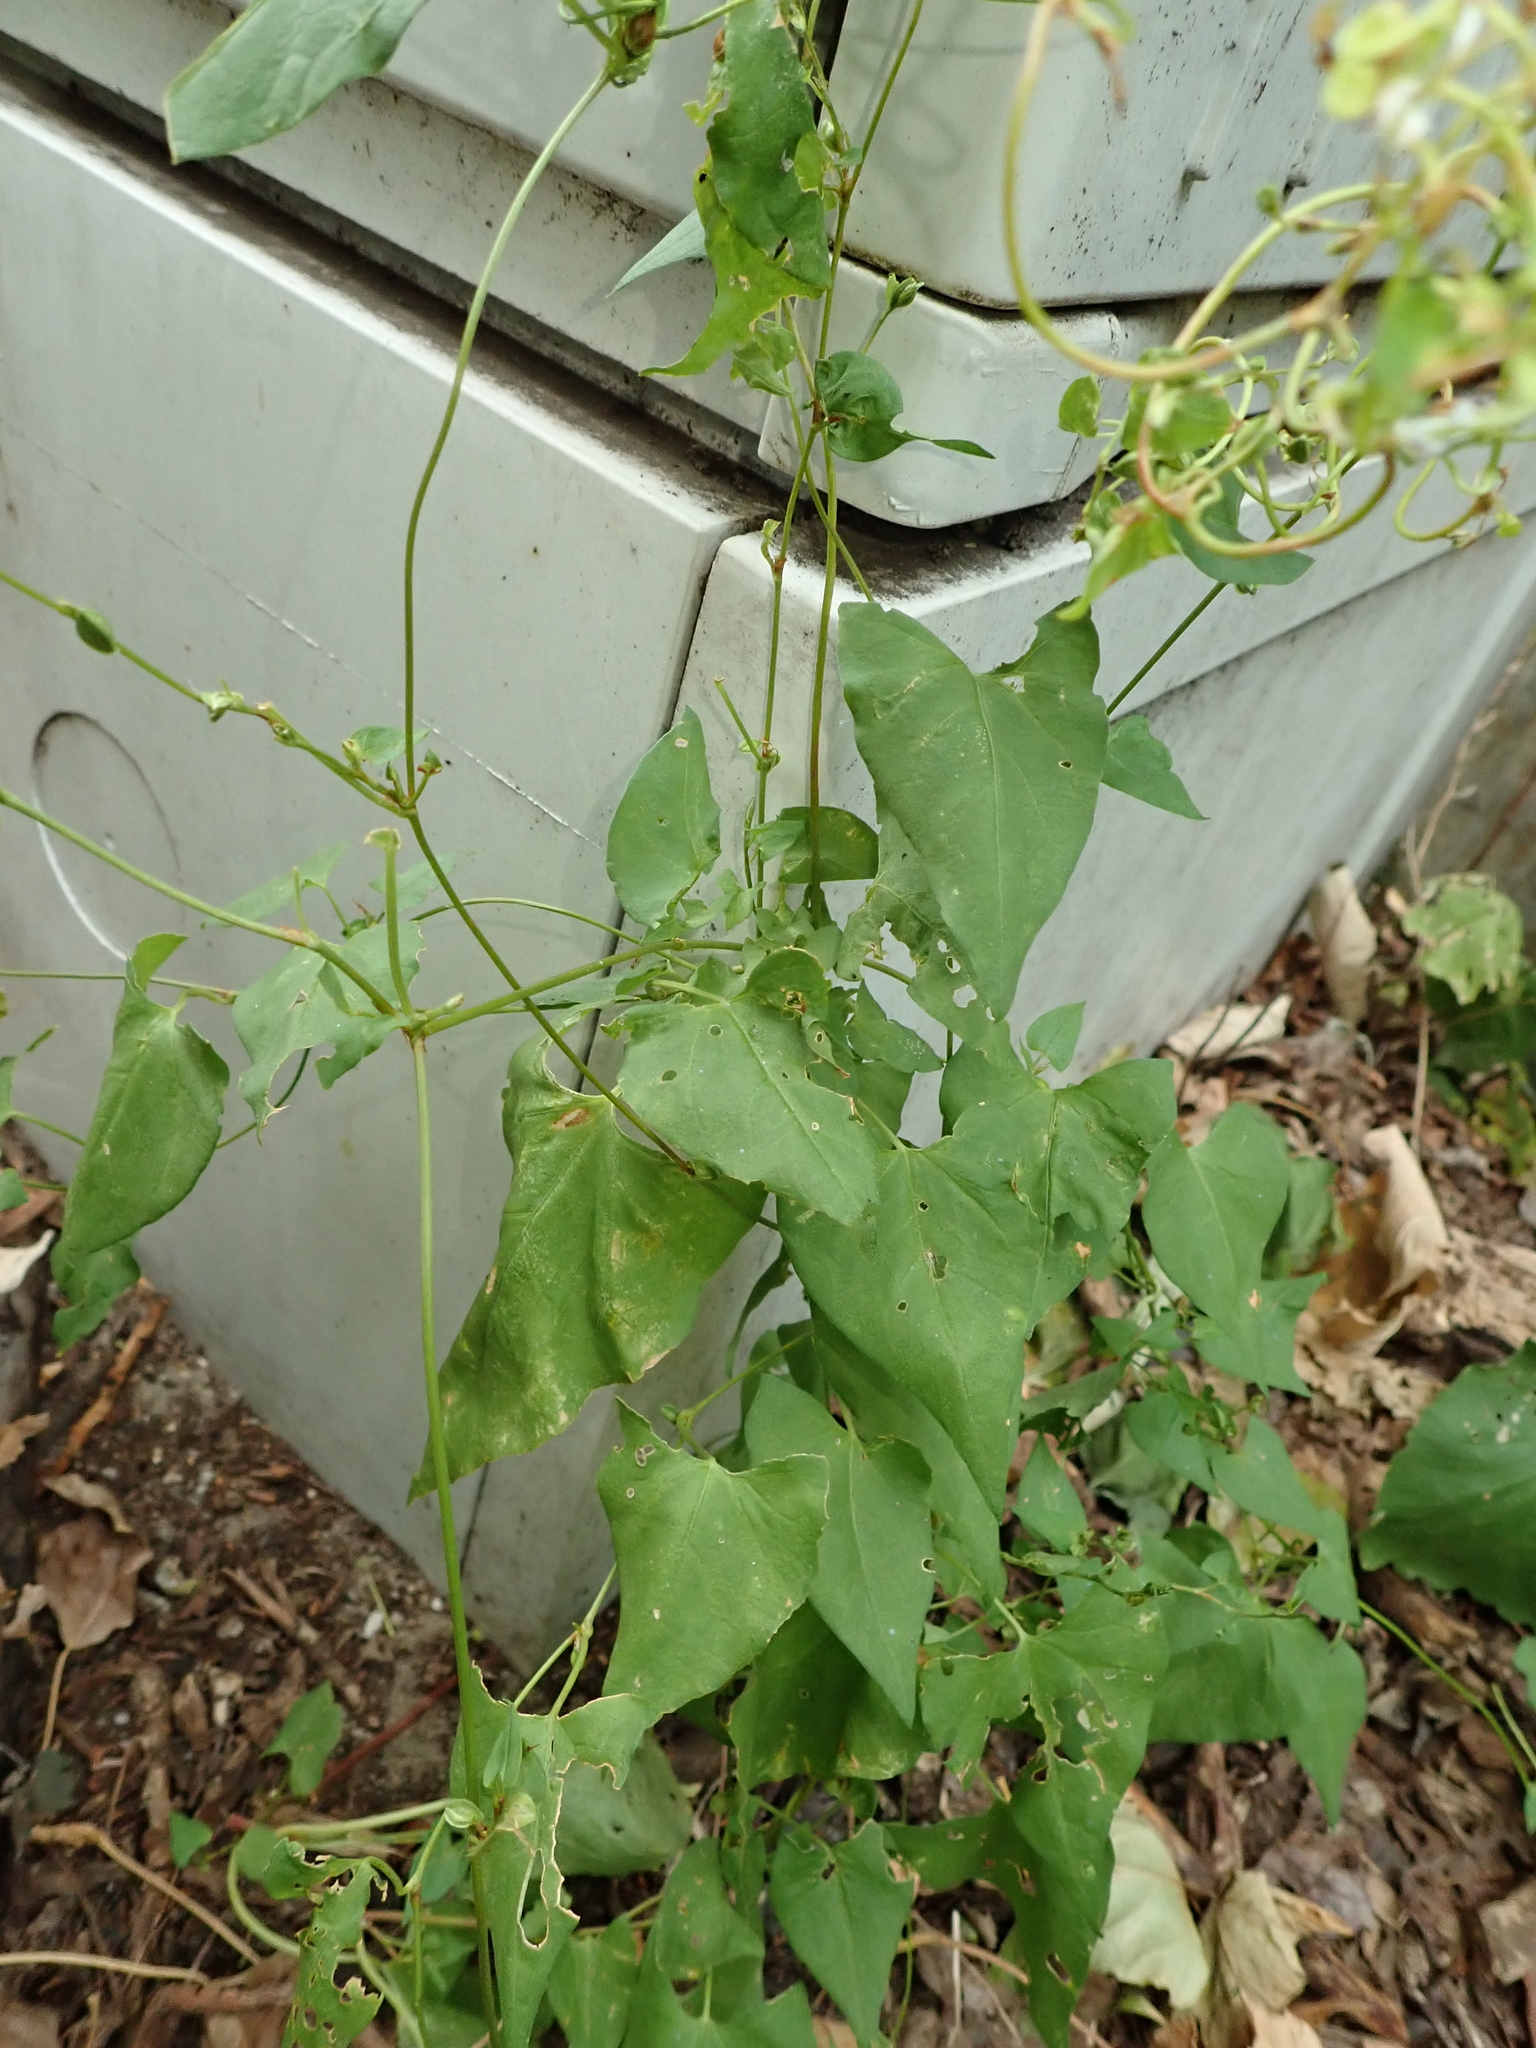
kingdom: Plantae
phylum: Tracheophyta
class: Magnoliopsida
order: Caryophyllales
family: Polygonaceae
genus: Fallopia
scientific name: Fallopia convolvulus
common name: Black bindweed
